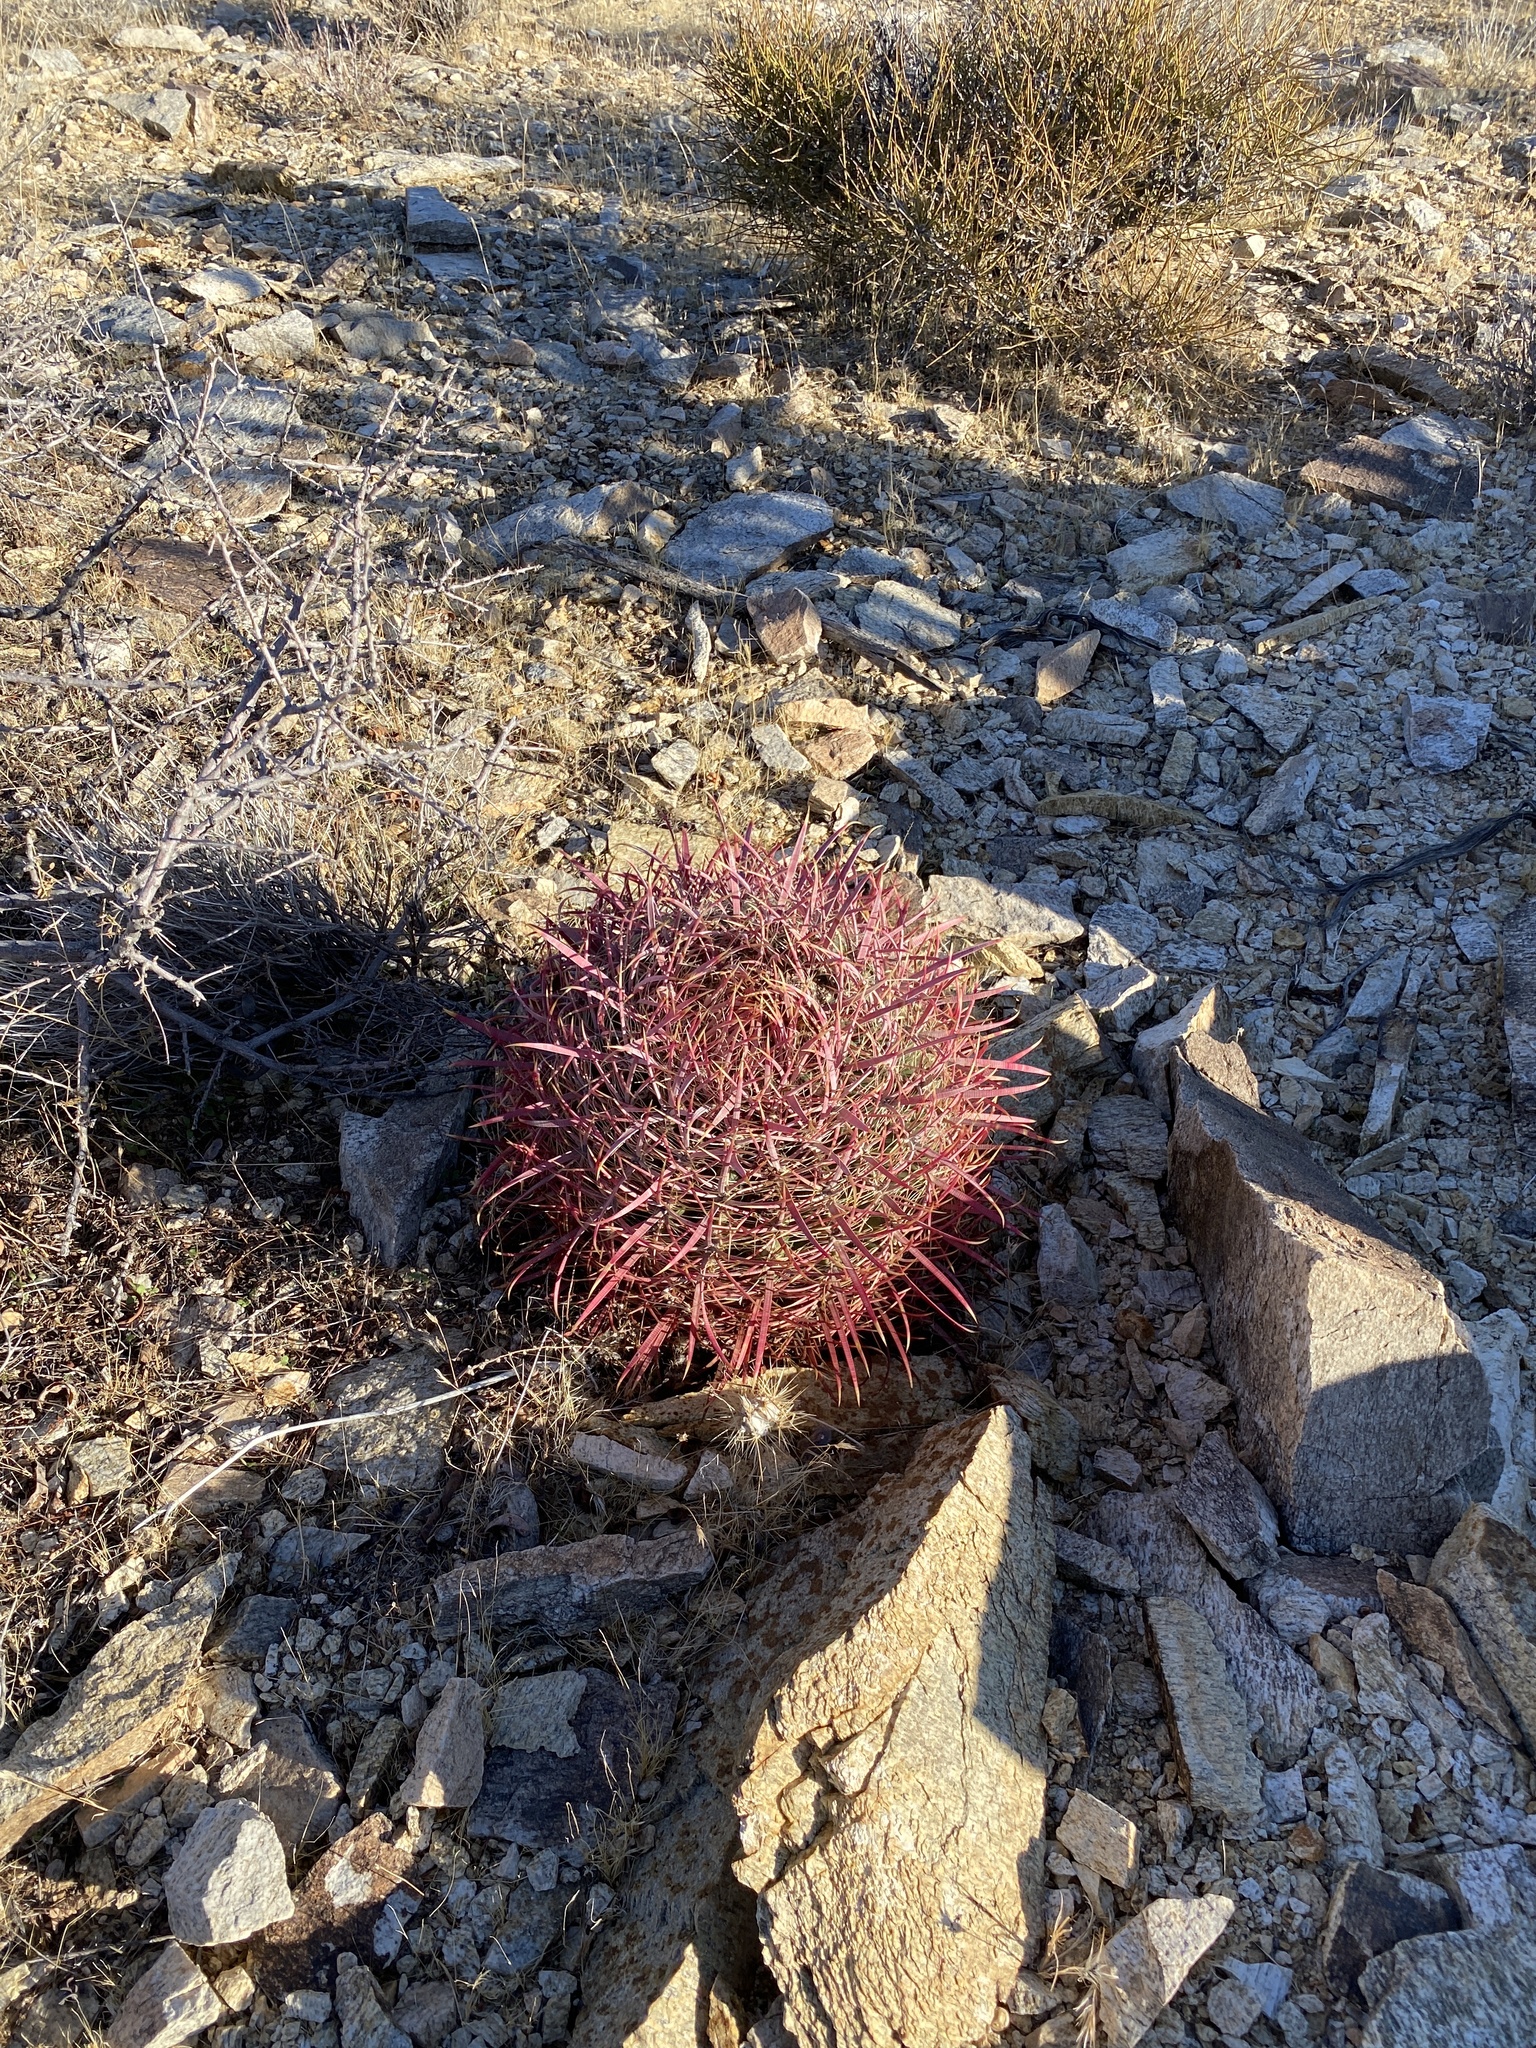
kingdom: Plantae
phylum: Tracheophyta
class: Magnoliopsida
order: Caryophyllales
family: Cactaceae
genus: Ferocactus
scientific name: Ferocactus cylindraceus
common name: California barrel cactus
